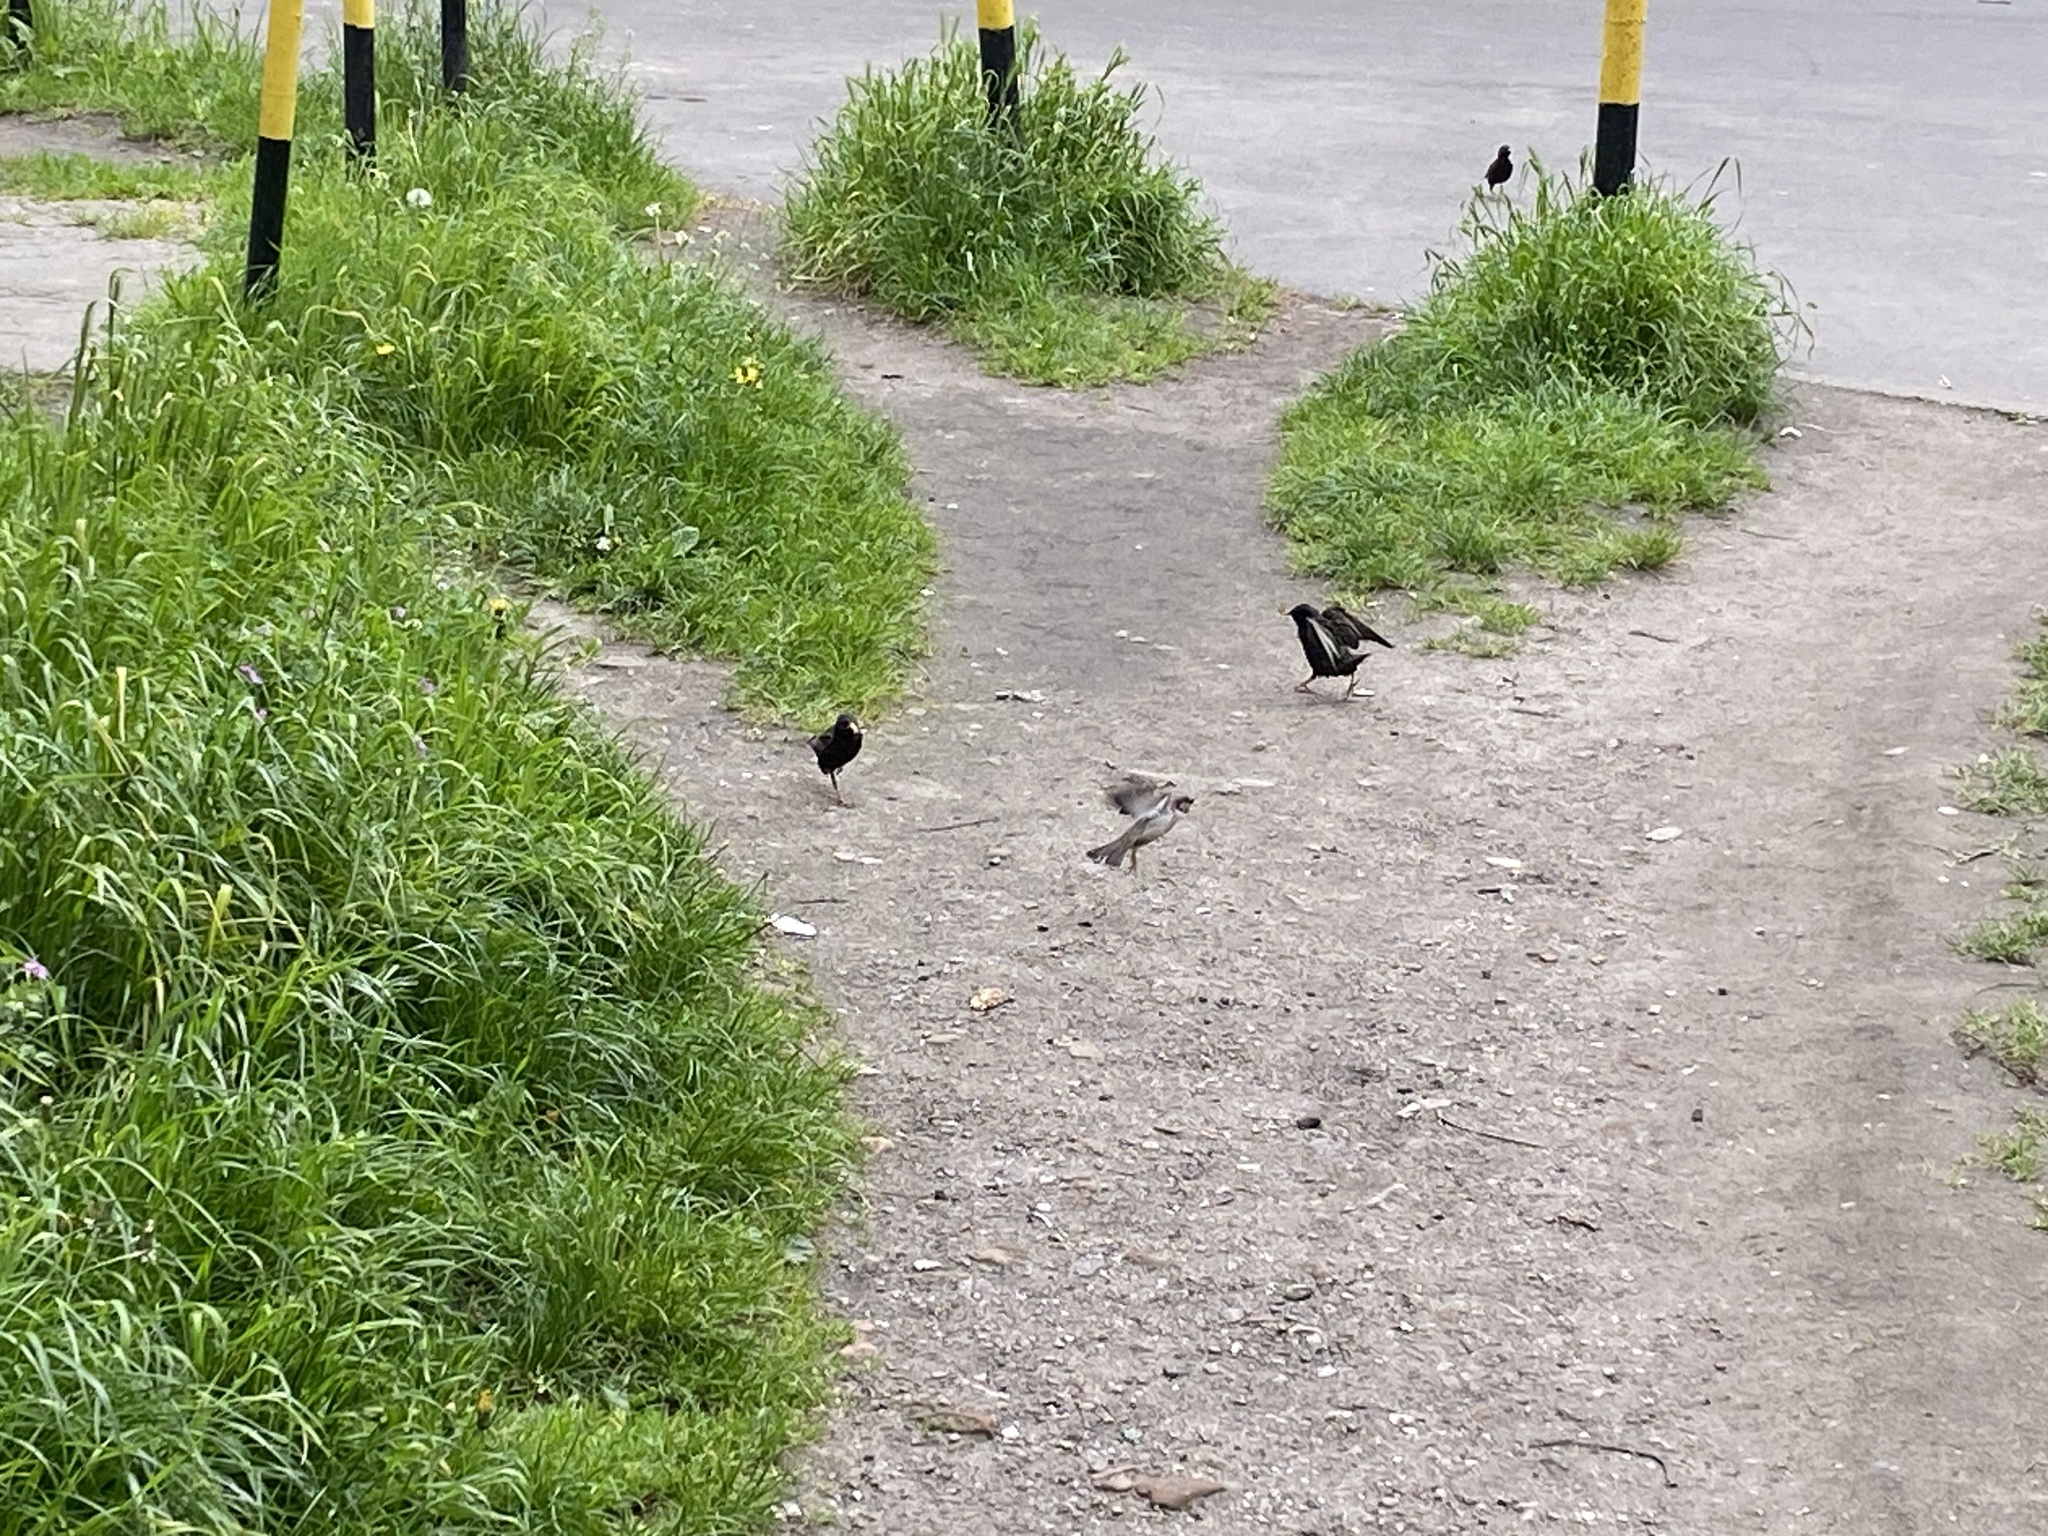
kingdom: Animalia
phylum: Chordata
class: Aves
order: Passeriformes
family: Sturnidae
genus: Sturnus
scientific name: Sturnus vulgaris
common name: Common starling
